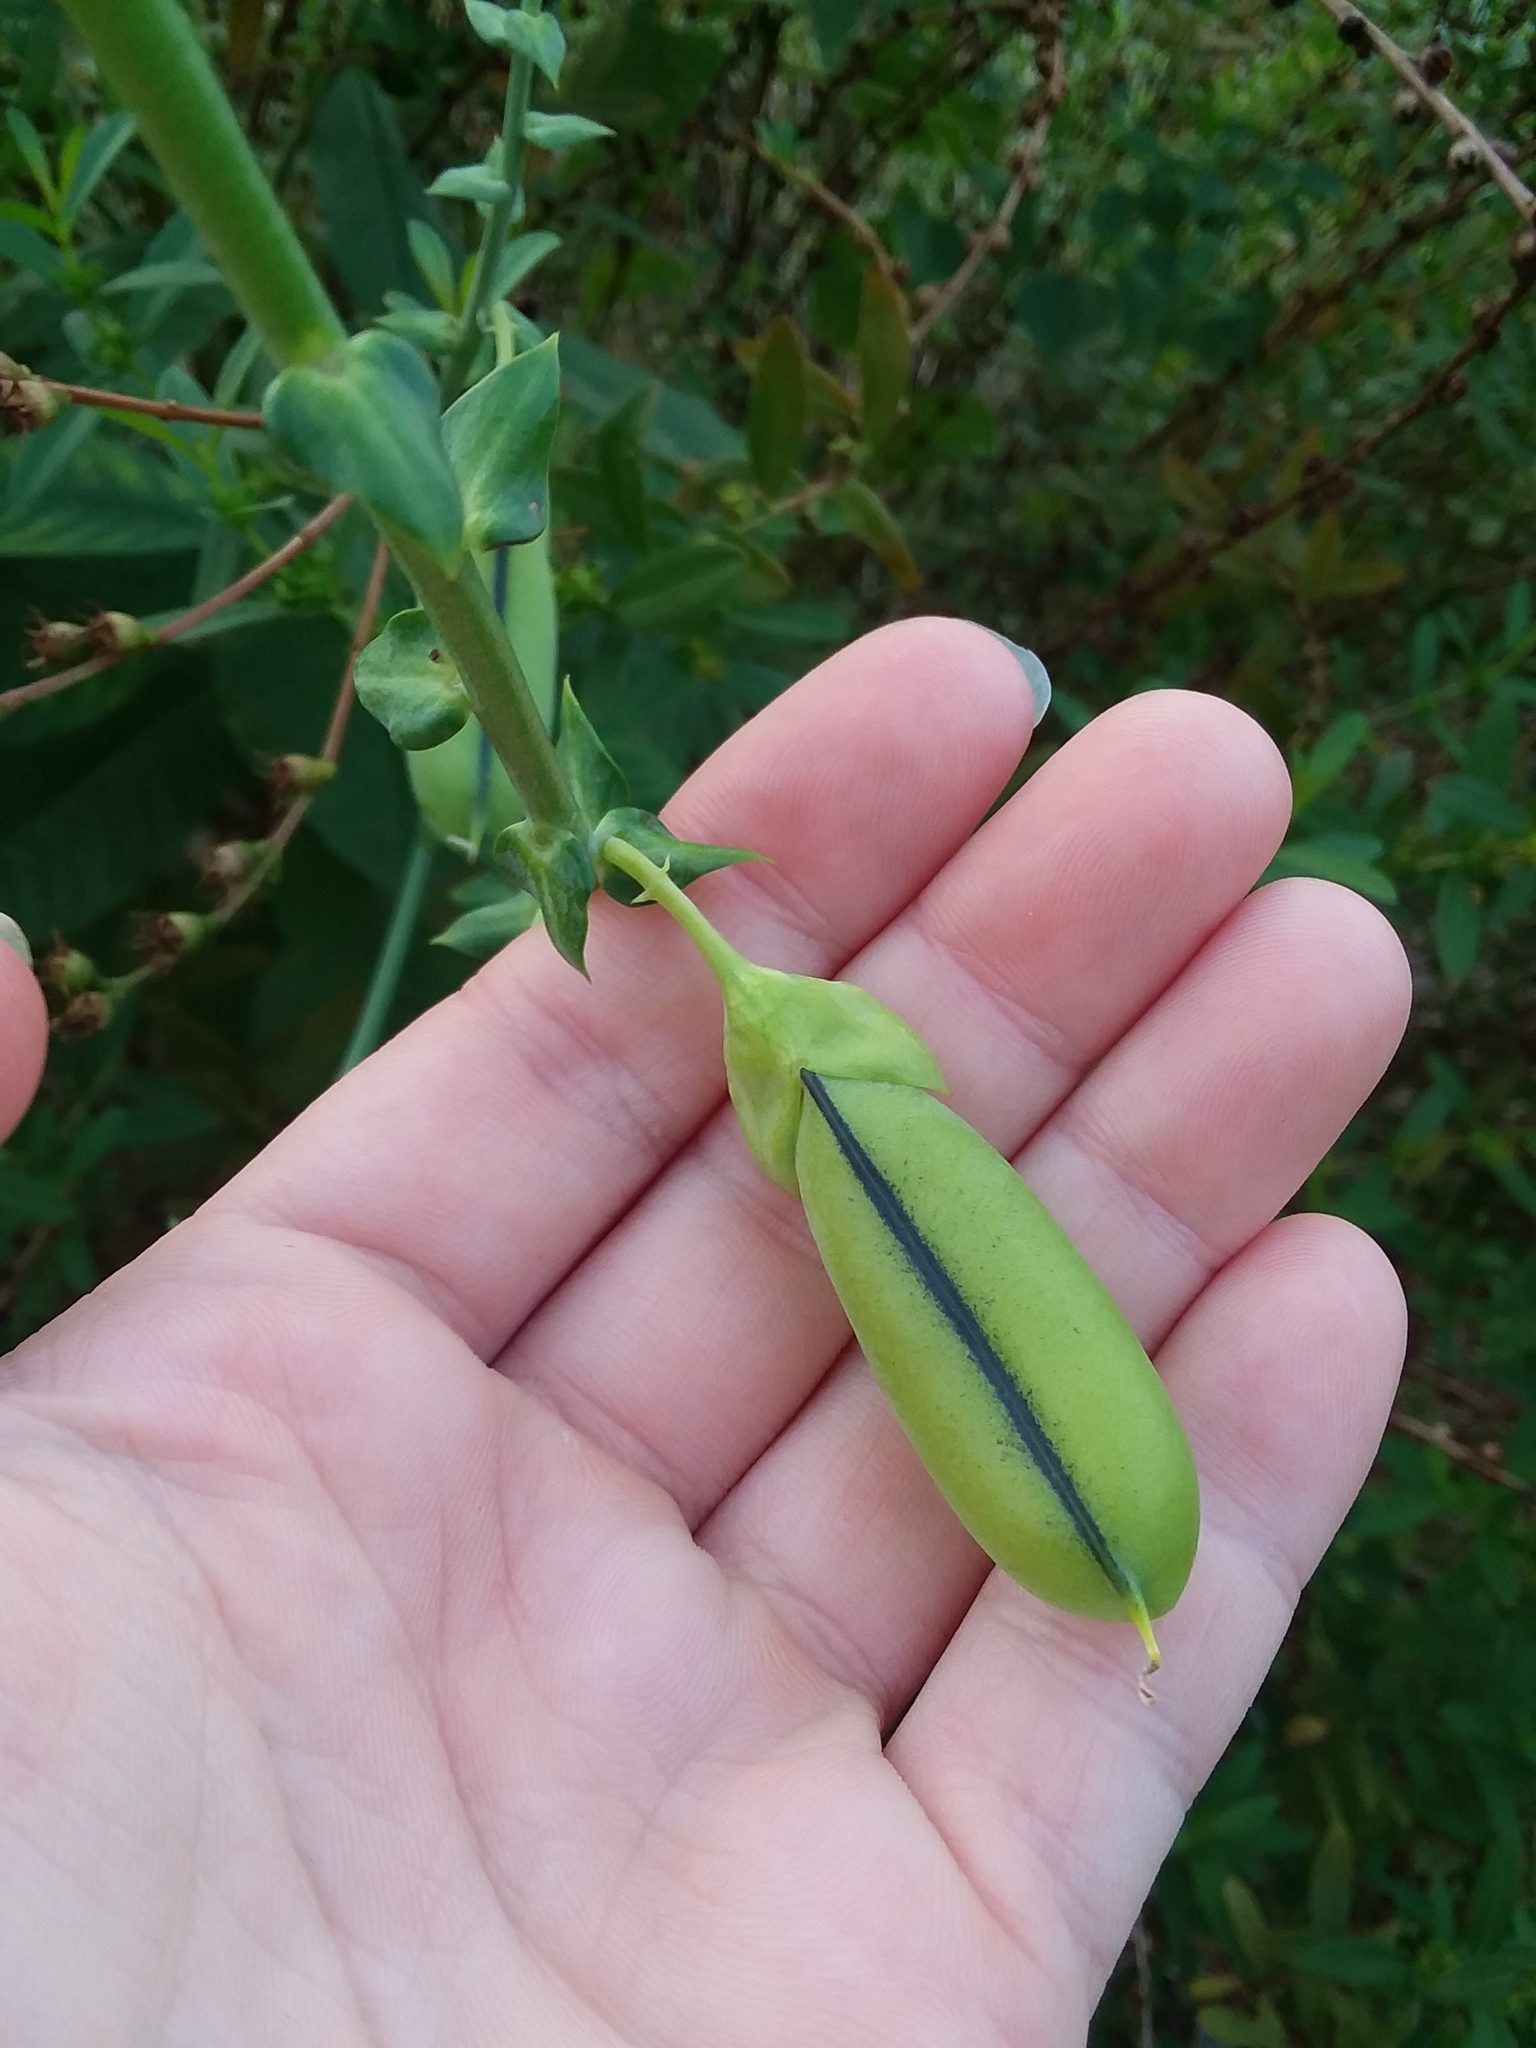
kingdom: Plantae
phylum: Tracheophyta
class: Magnoliopsida
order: Fabales
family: Fabaceae
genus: Crotalaria
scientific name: Crotalaria spectabilis
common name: Showy rattlebox
